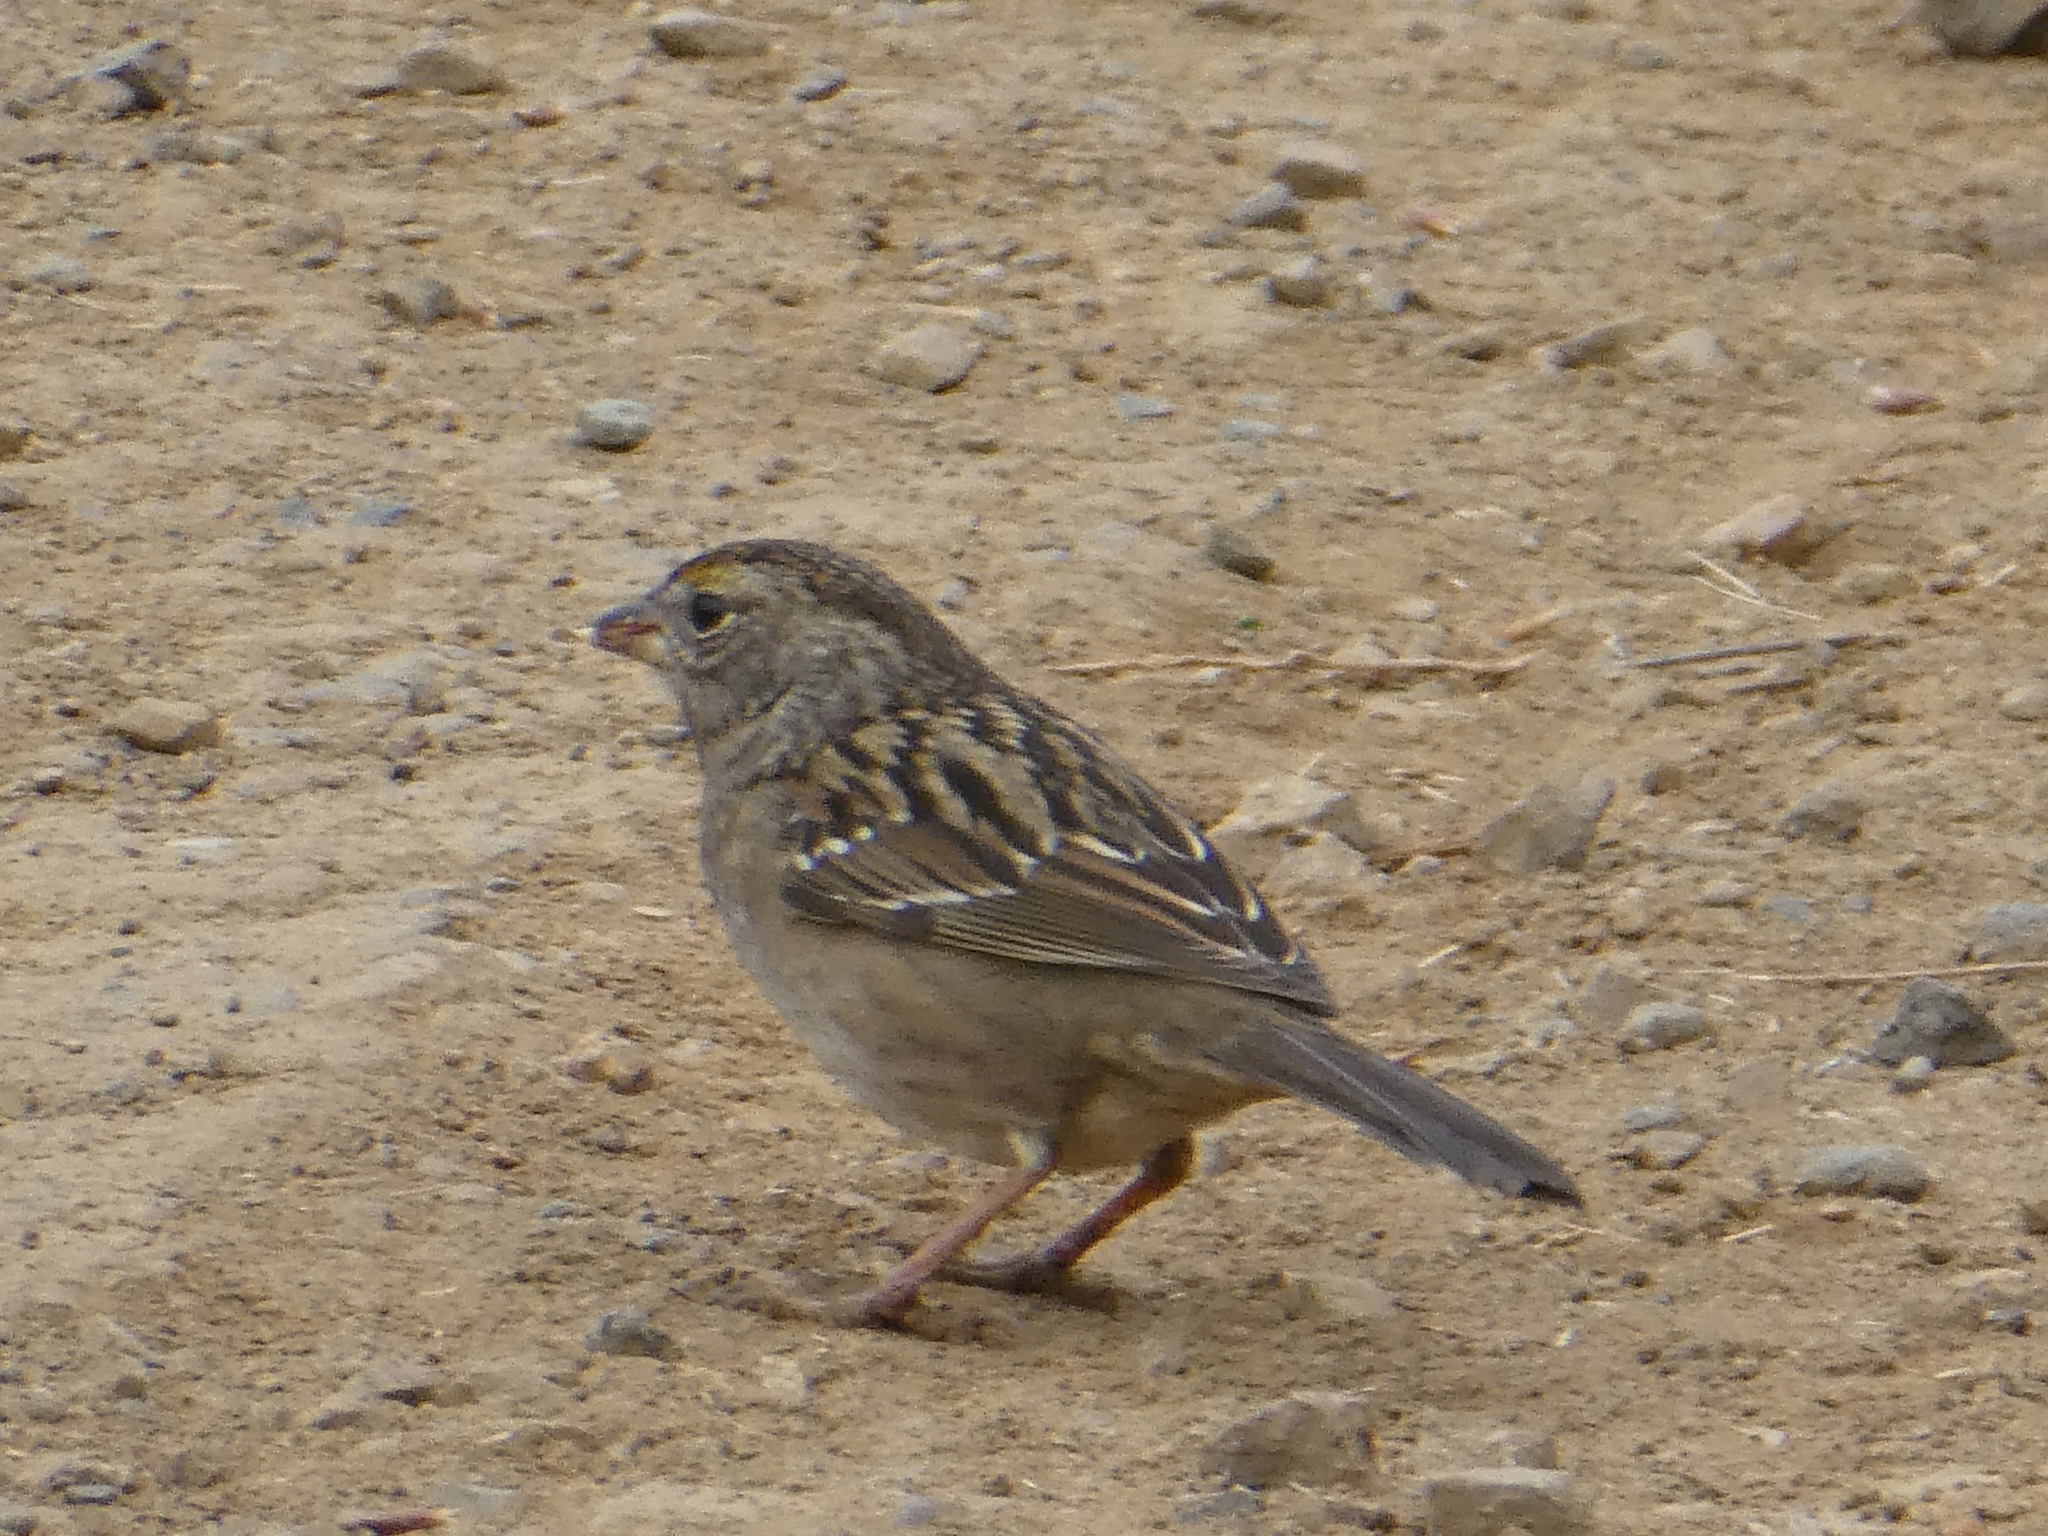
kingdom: Animalia
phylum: Chordata
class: Aves
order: Passeriformes
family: Passerellidae
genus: Zonotrichia
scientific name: Zonotrichia atricapilla
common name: Golden-crowned sparrow
